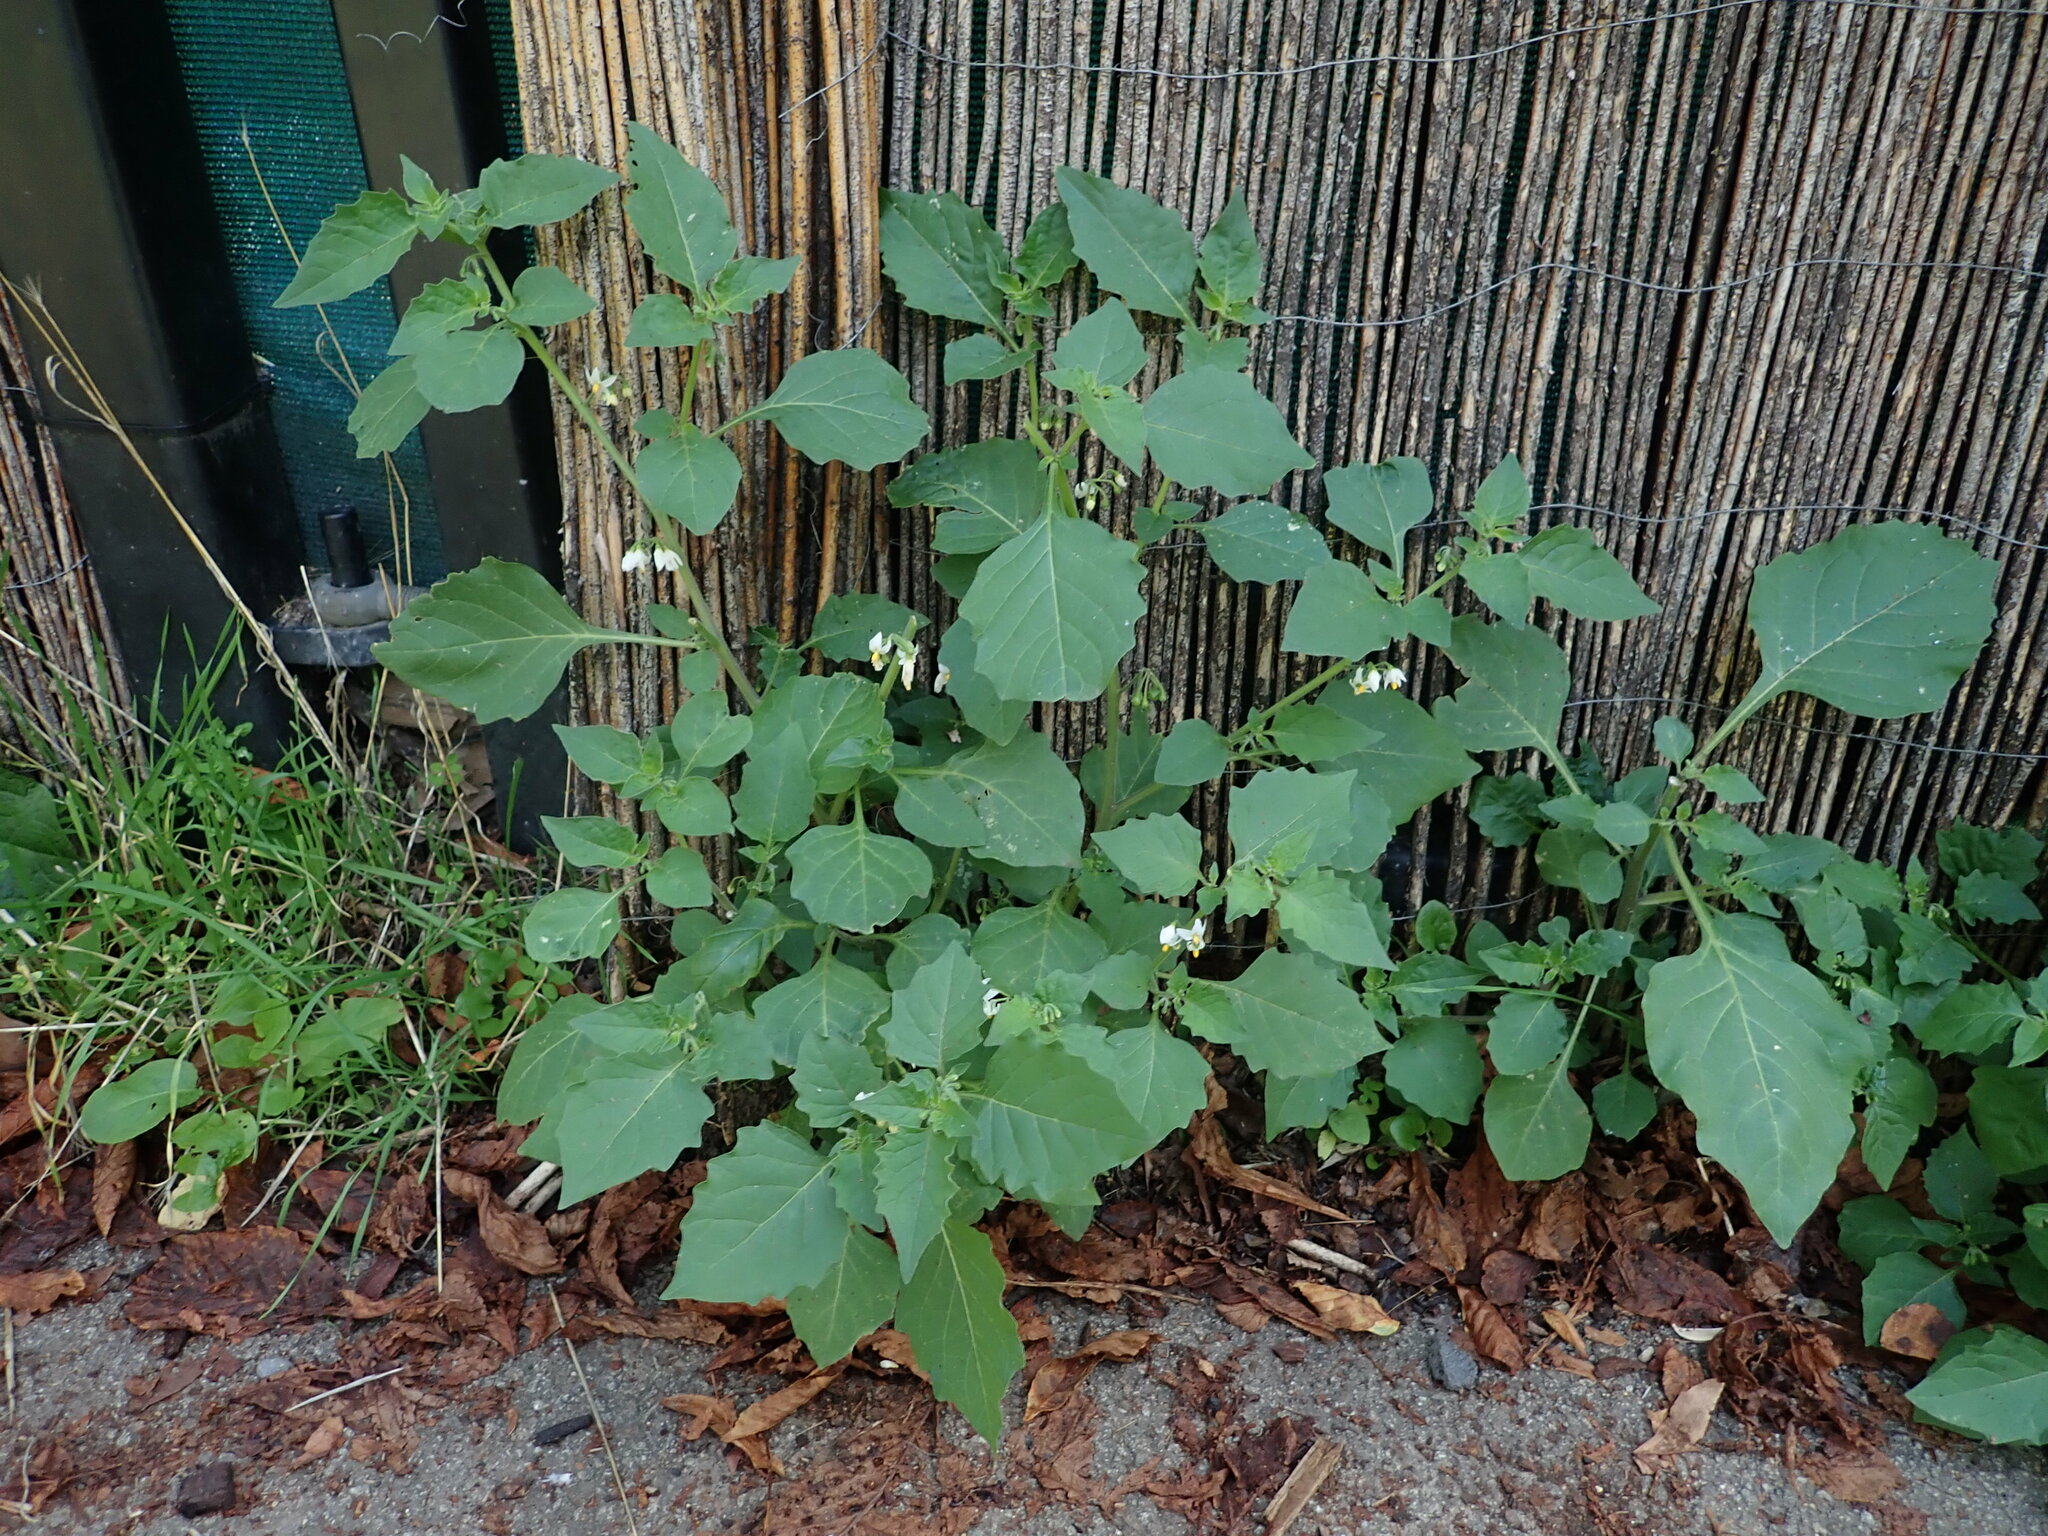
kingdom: Plantae
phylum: Tracheophyta
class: Magnoliopsida
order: Solanales
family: Solanaceae
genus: Solanum
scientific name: Solanum nigrum
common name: Black nightshade
